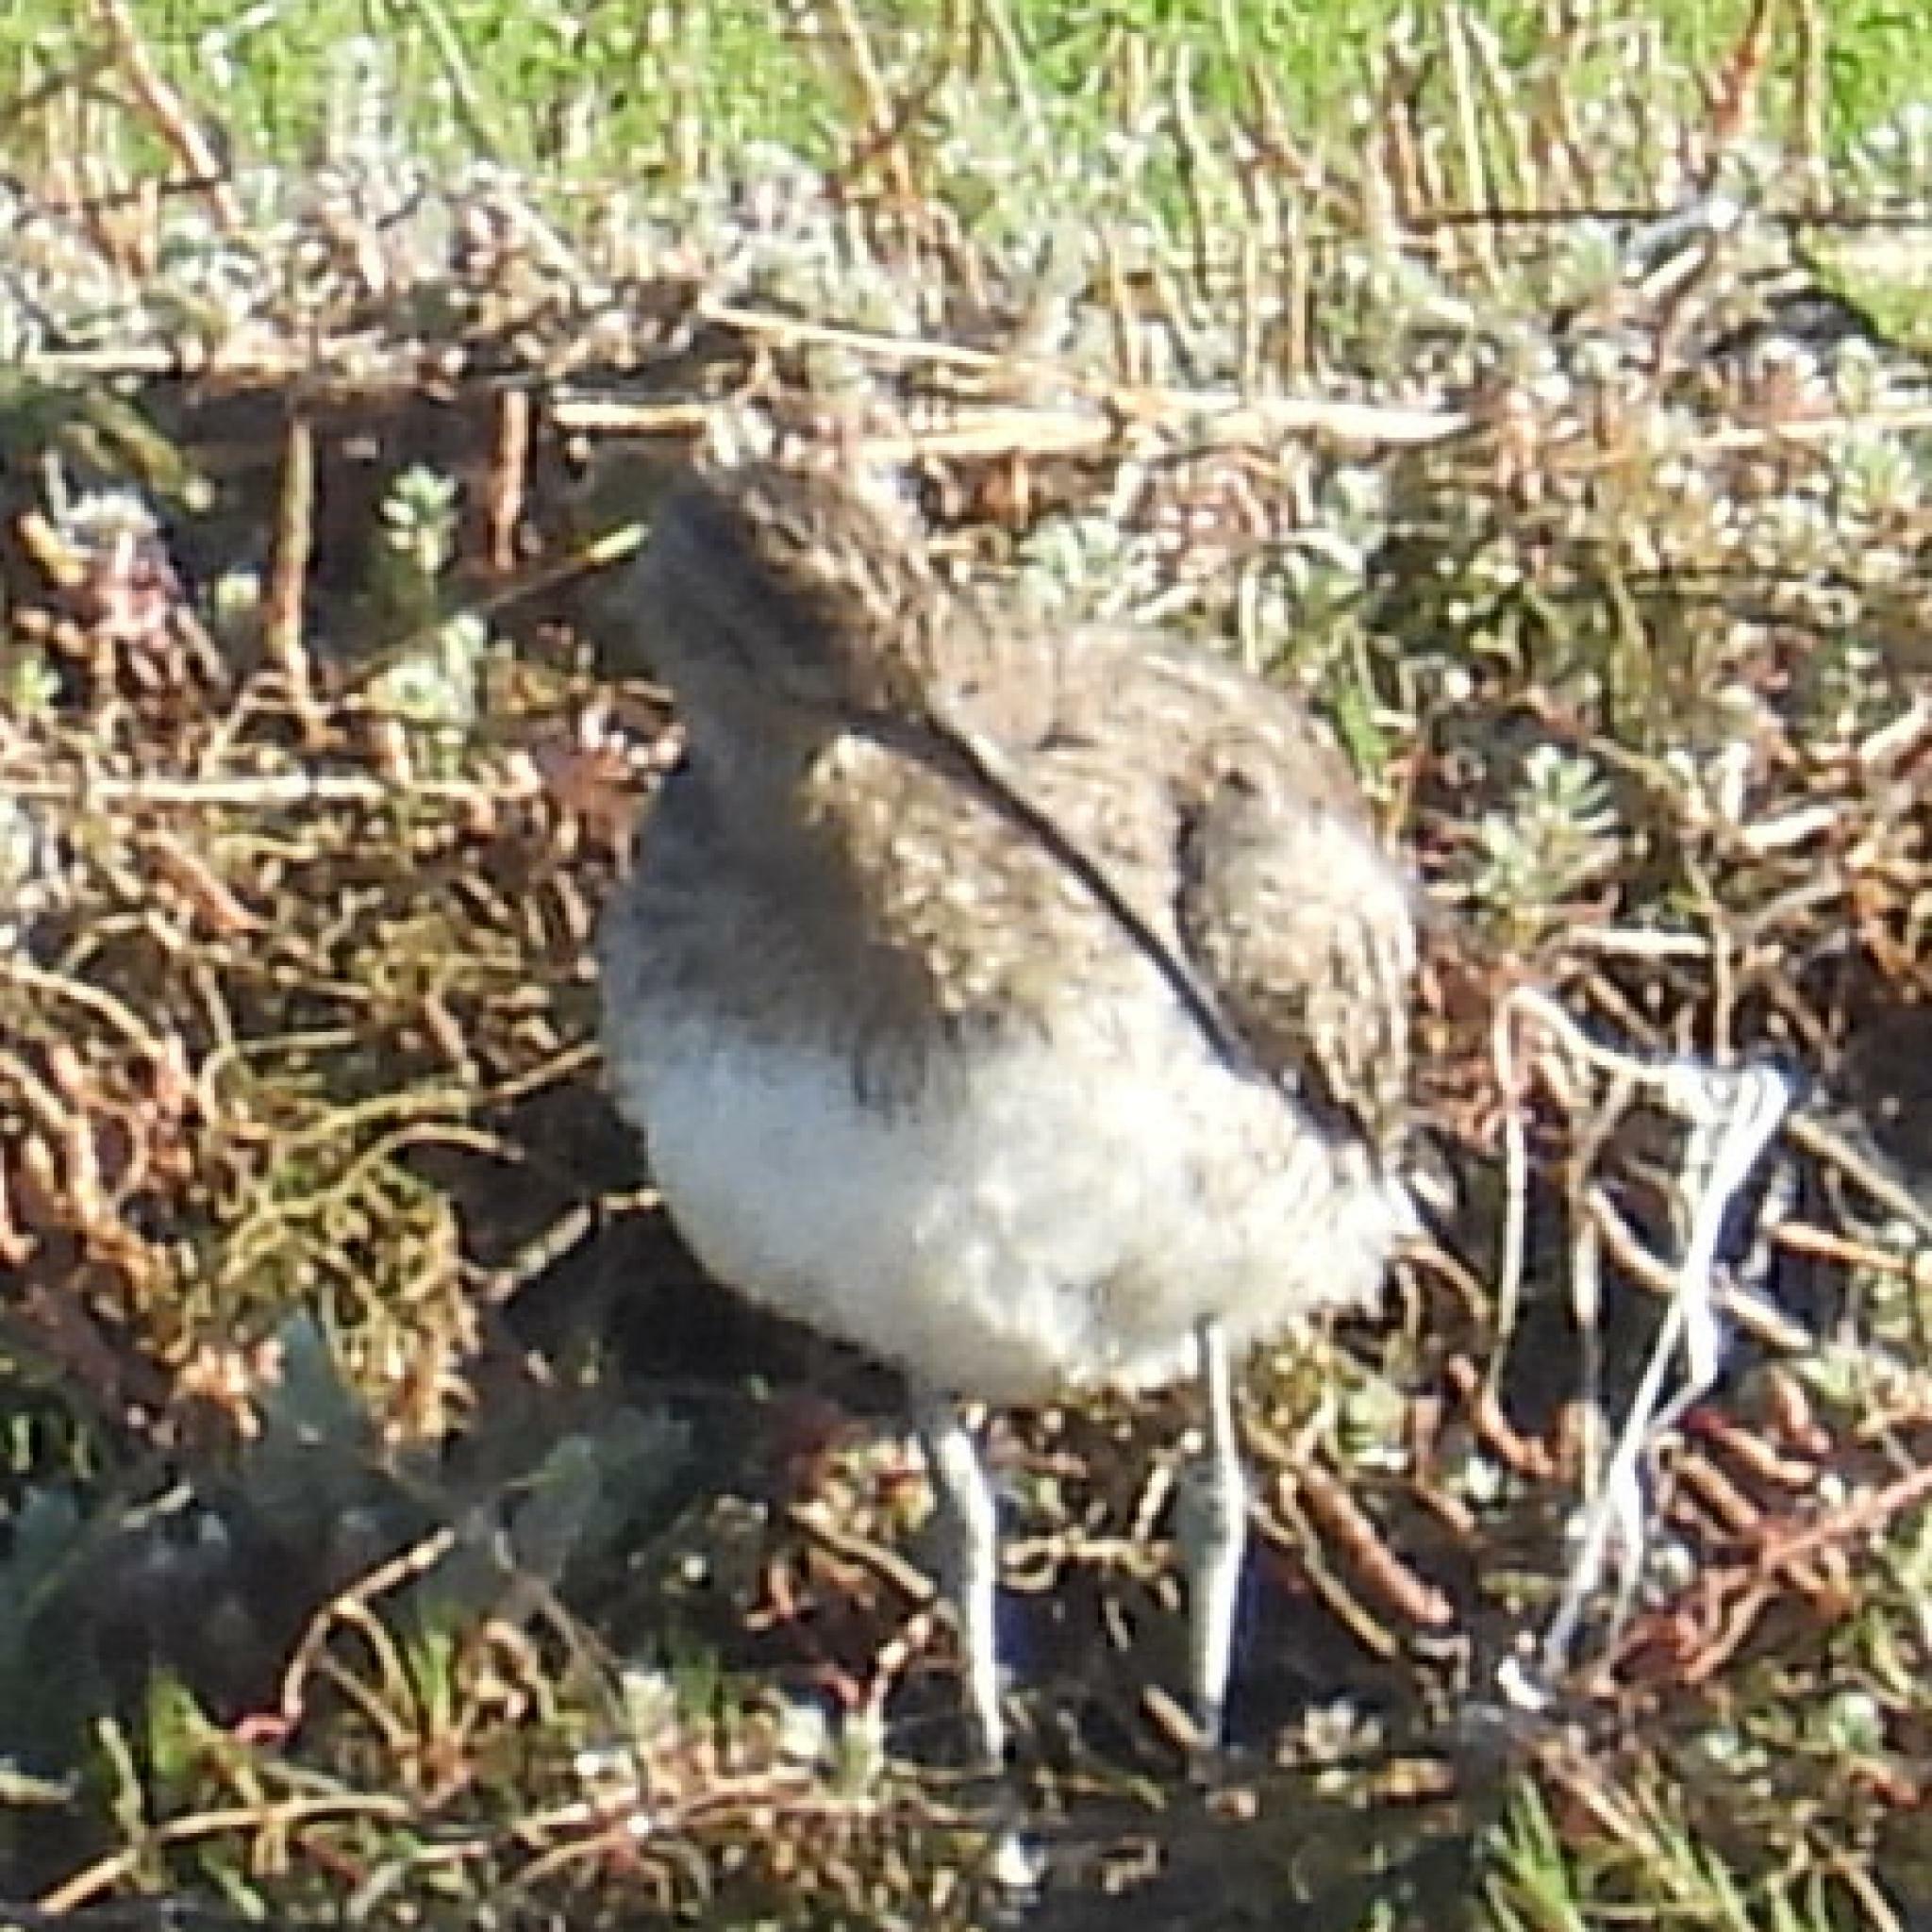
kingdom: Animalia
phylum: Chordata
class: Aves
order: Charadriiformes
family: Scolopacidae
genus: Numenius
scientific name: Numenius phaeopus
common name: Whimbrel
